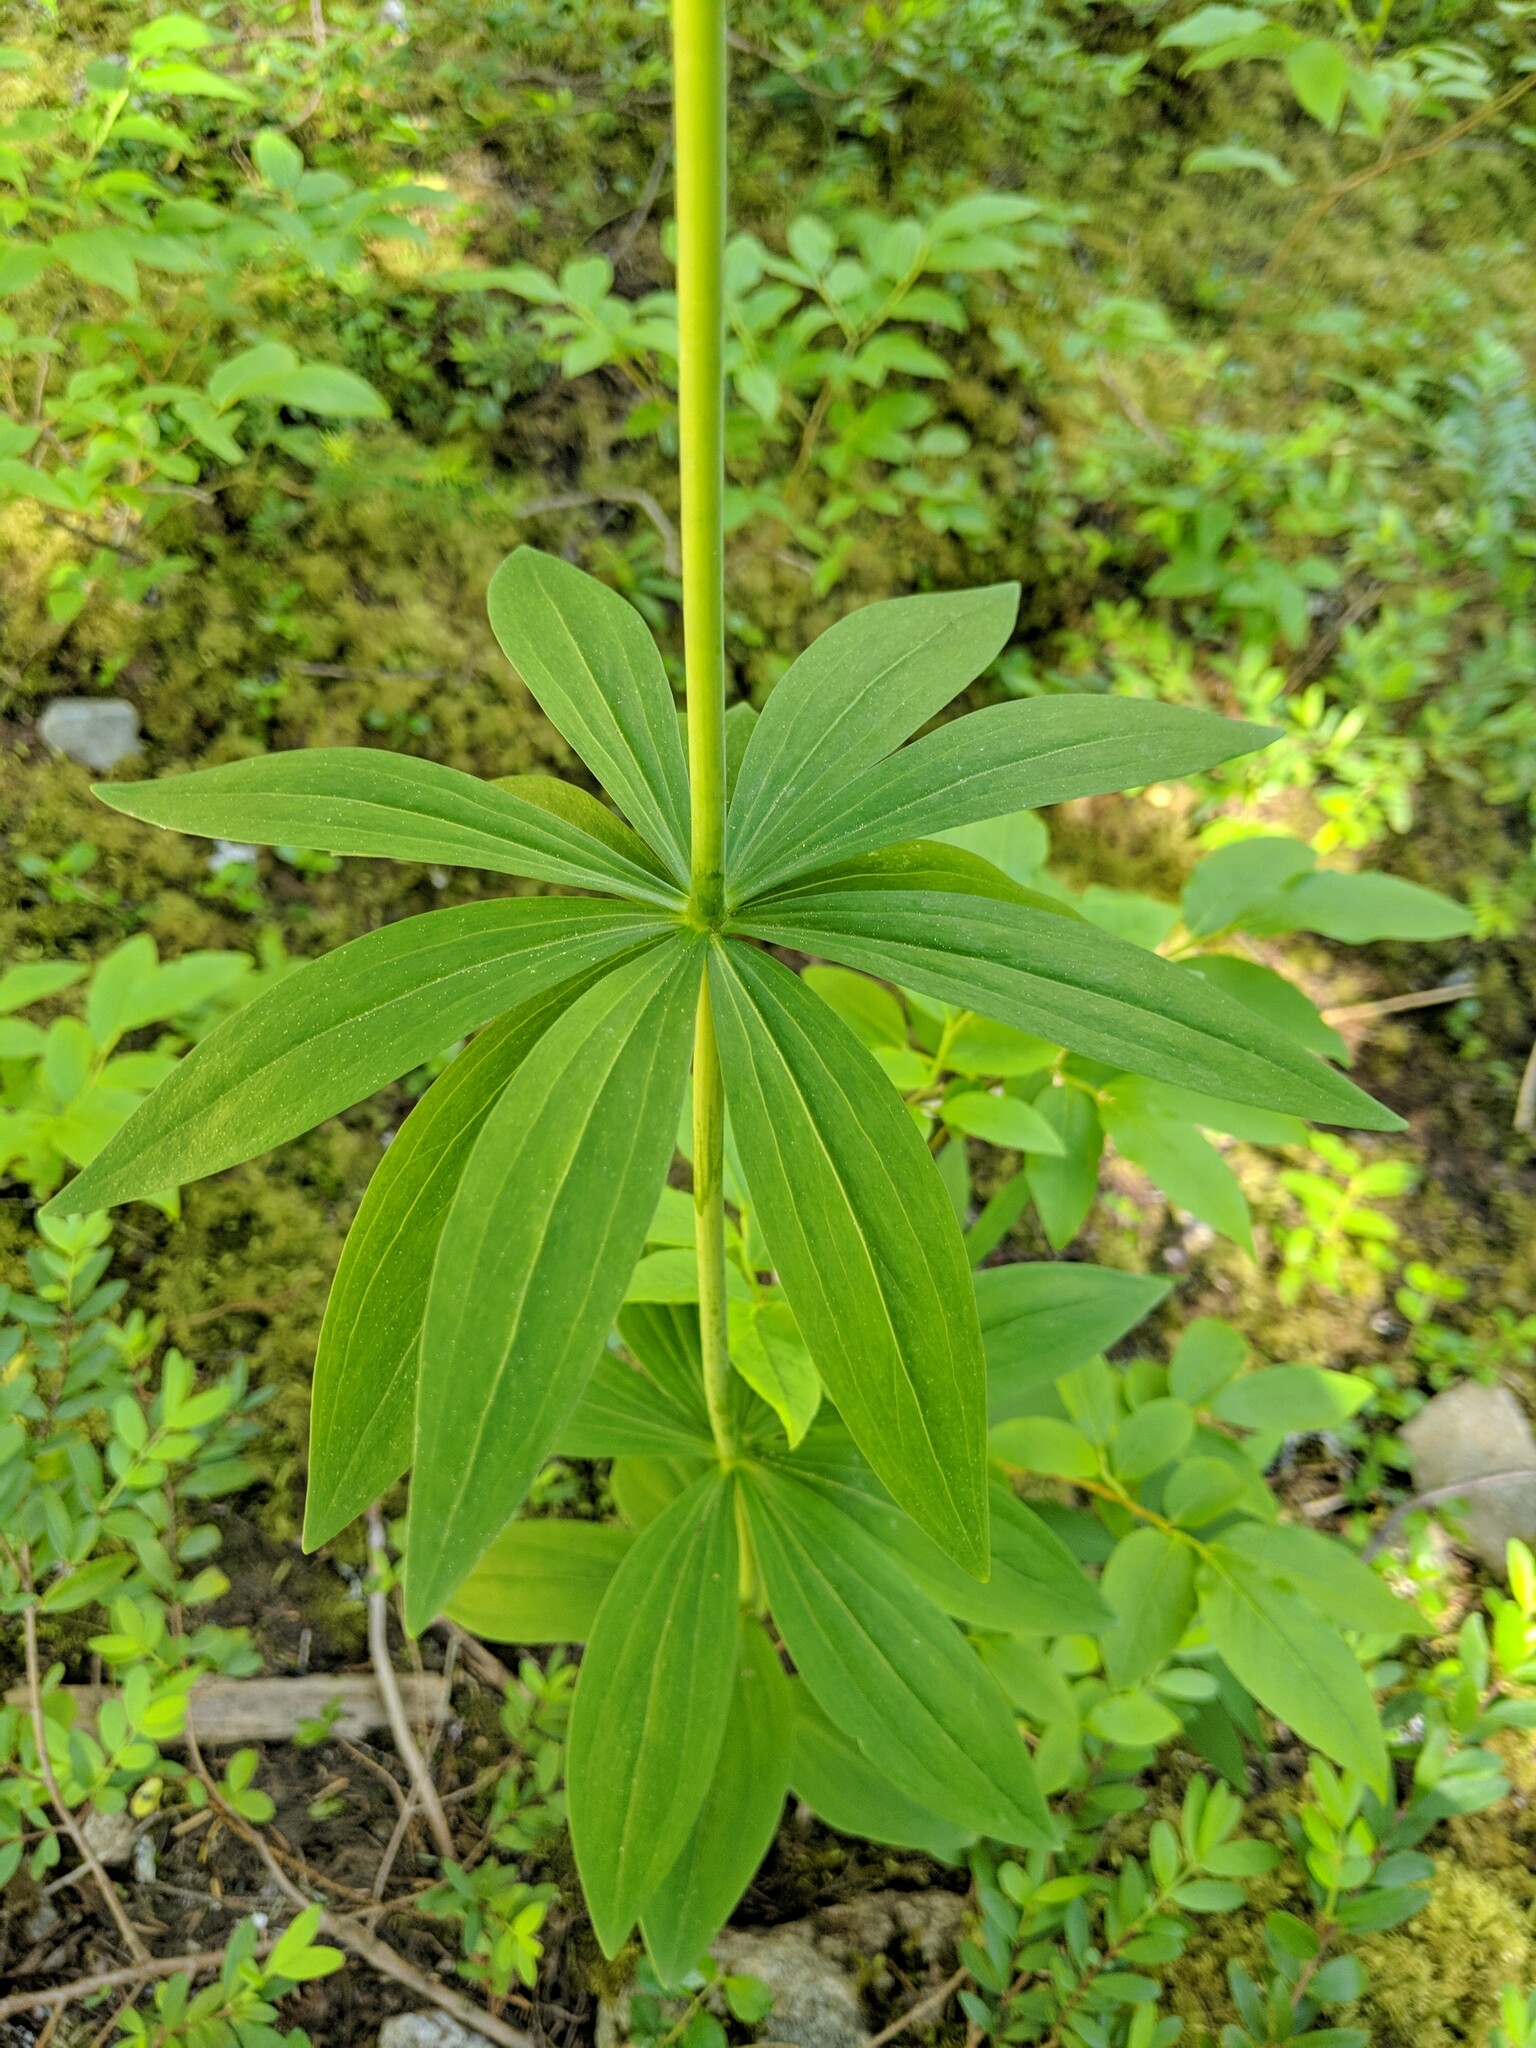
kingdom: Plantae
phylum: Tracheophyta
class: Liliopsida
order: Liliales
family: Liliaceae
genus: Lilium
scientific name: Lilium columbianum
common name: Columbia lily
